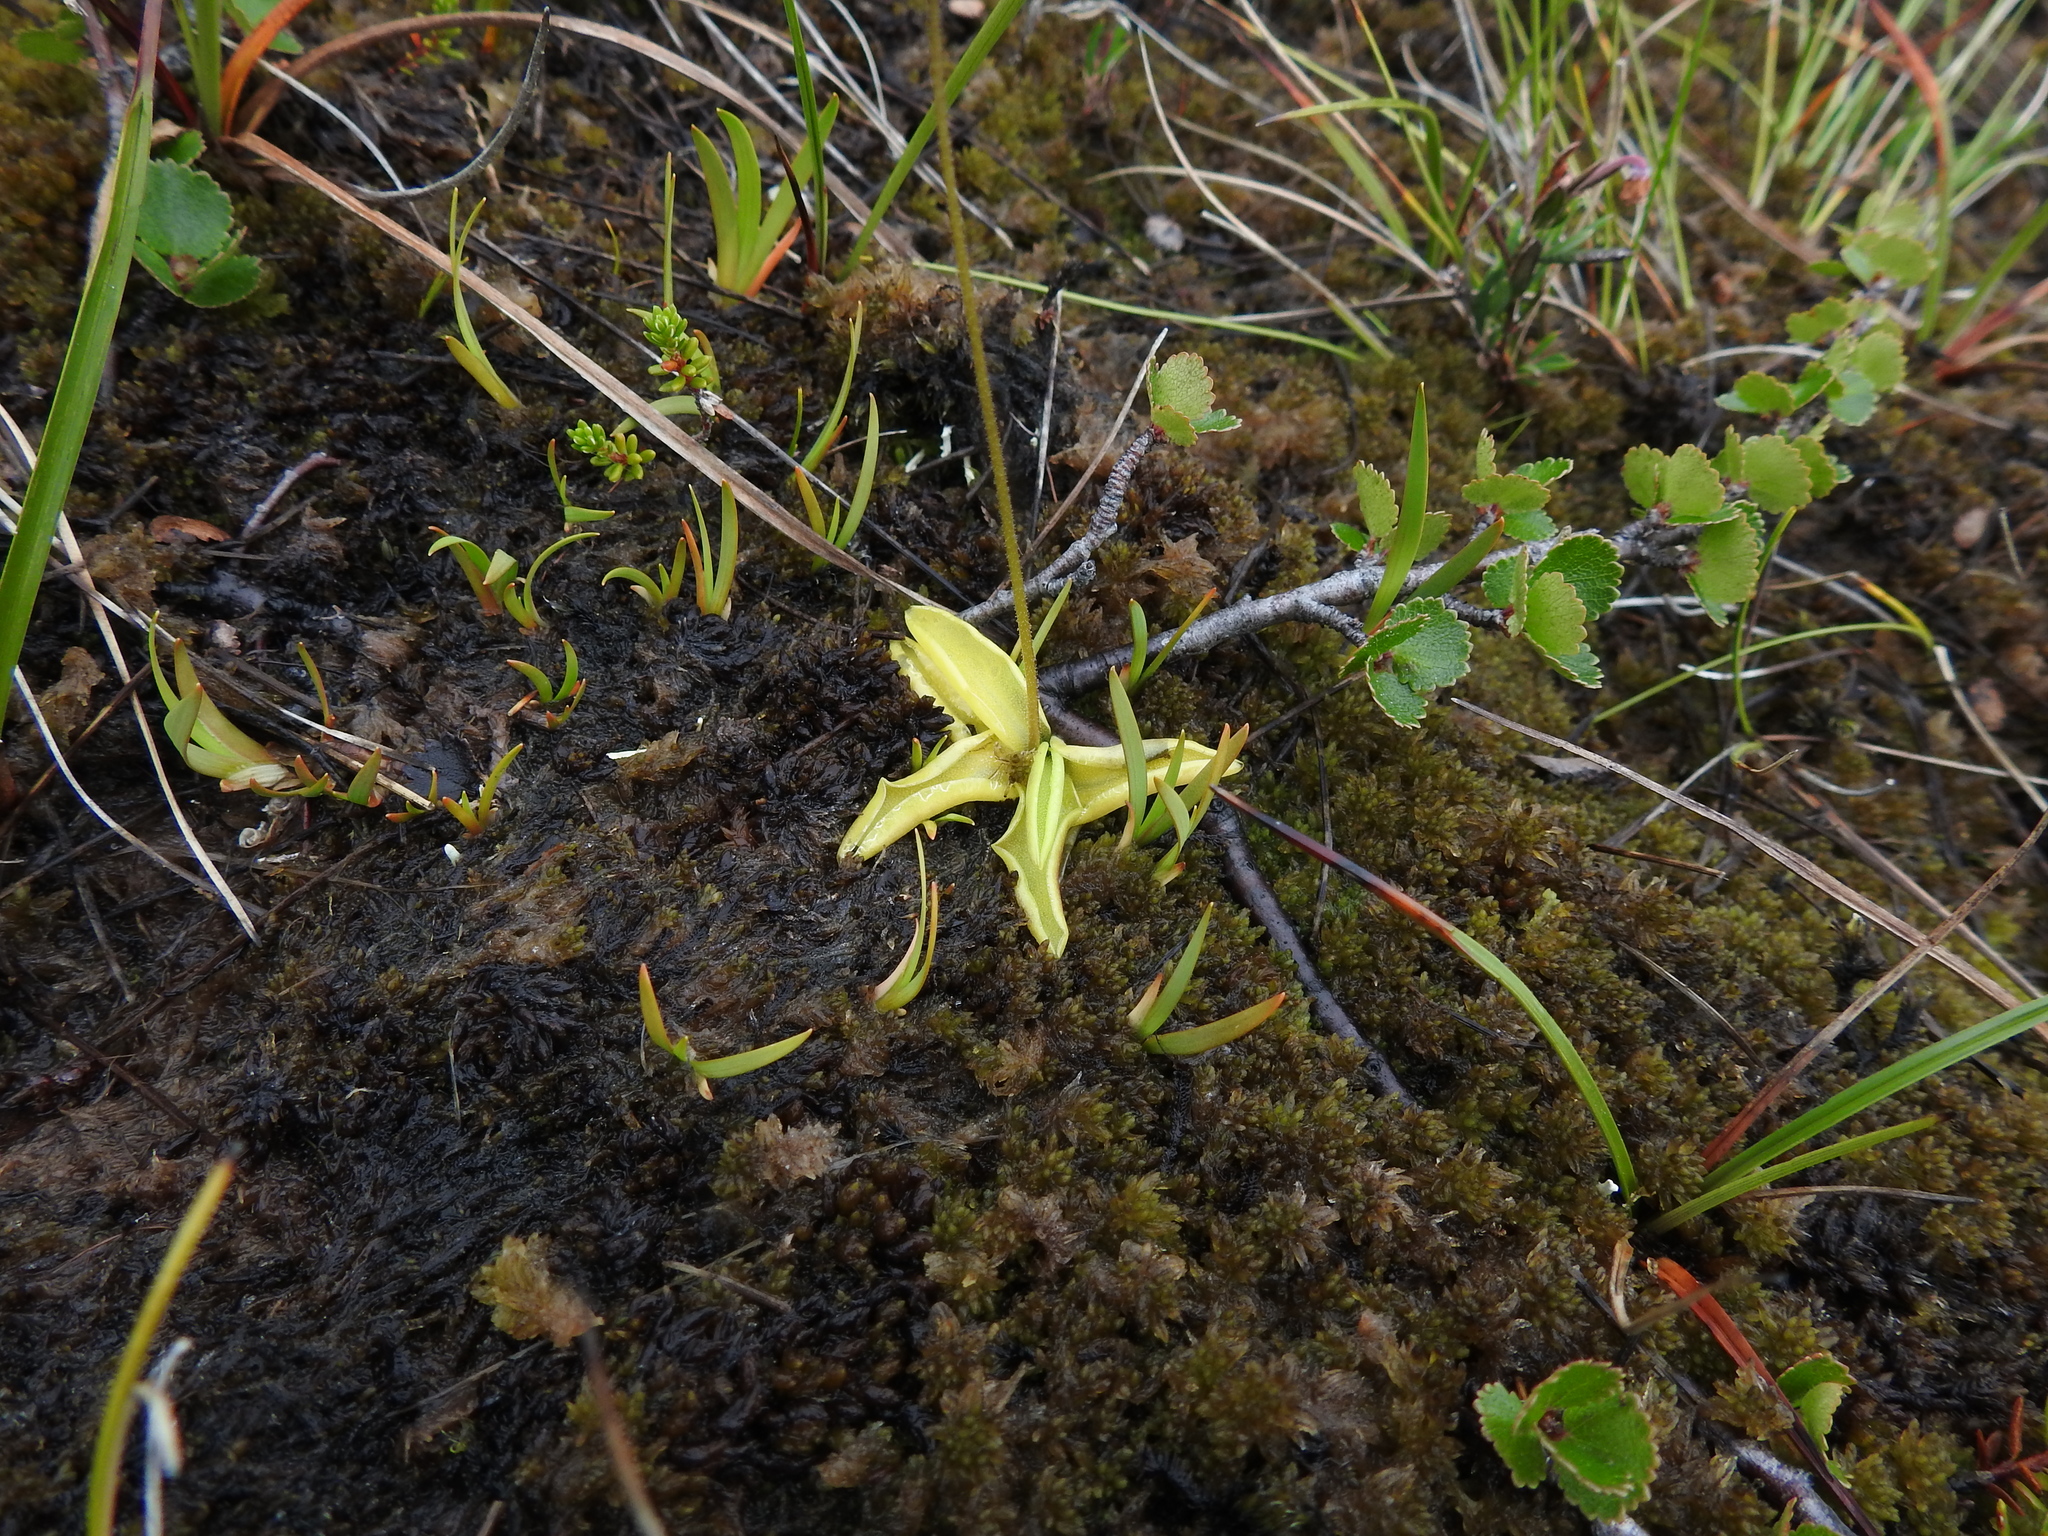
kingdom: Plantae
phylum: Tracheophyta
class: Magnoliopsida
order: Lamiales
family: Lentibulariaceae
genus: Pinguicula
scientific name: Pinguicula vulgaris
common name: Common butterwort
